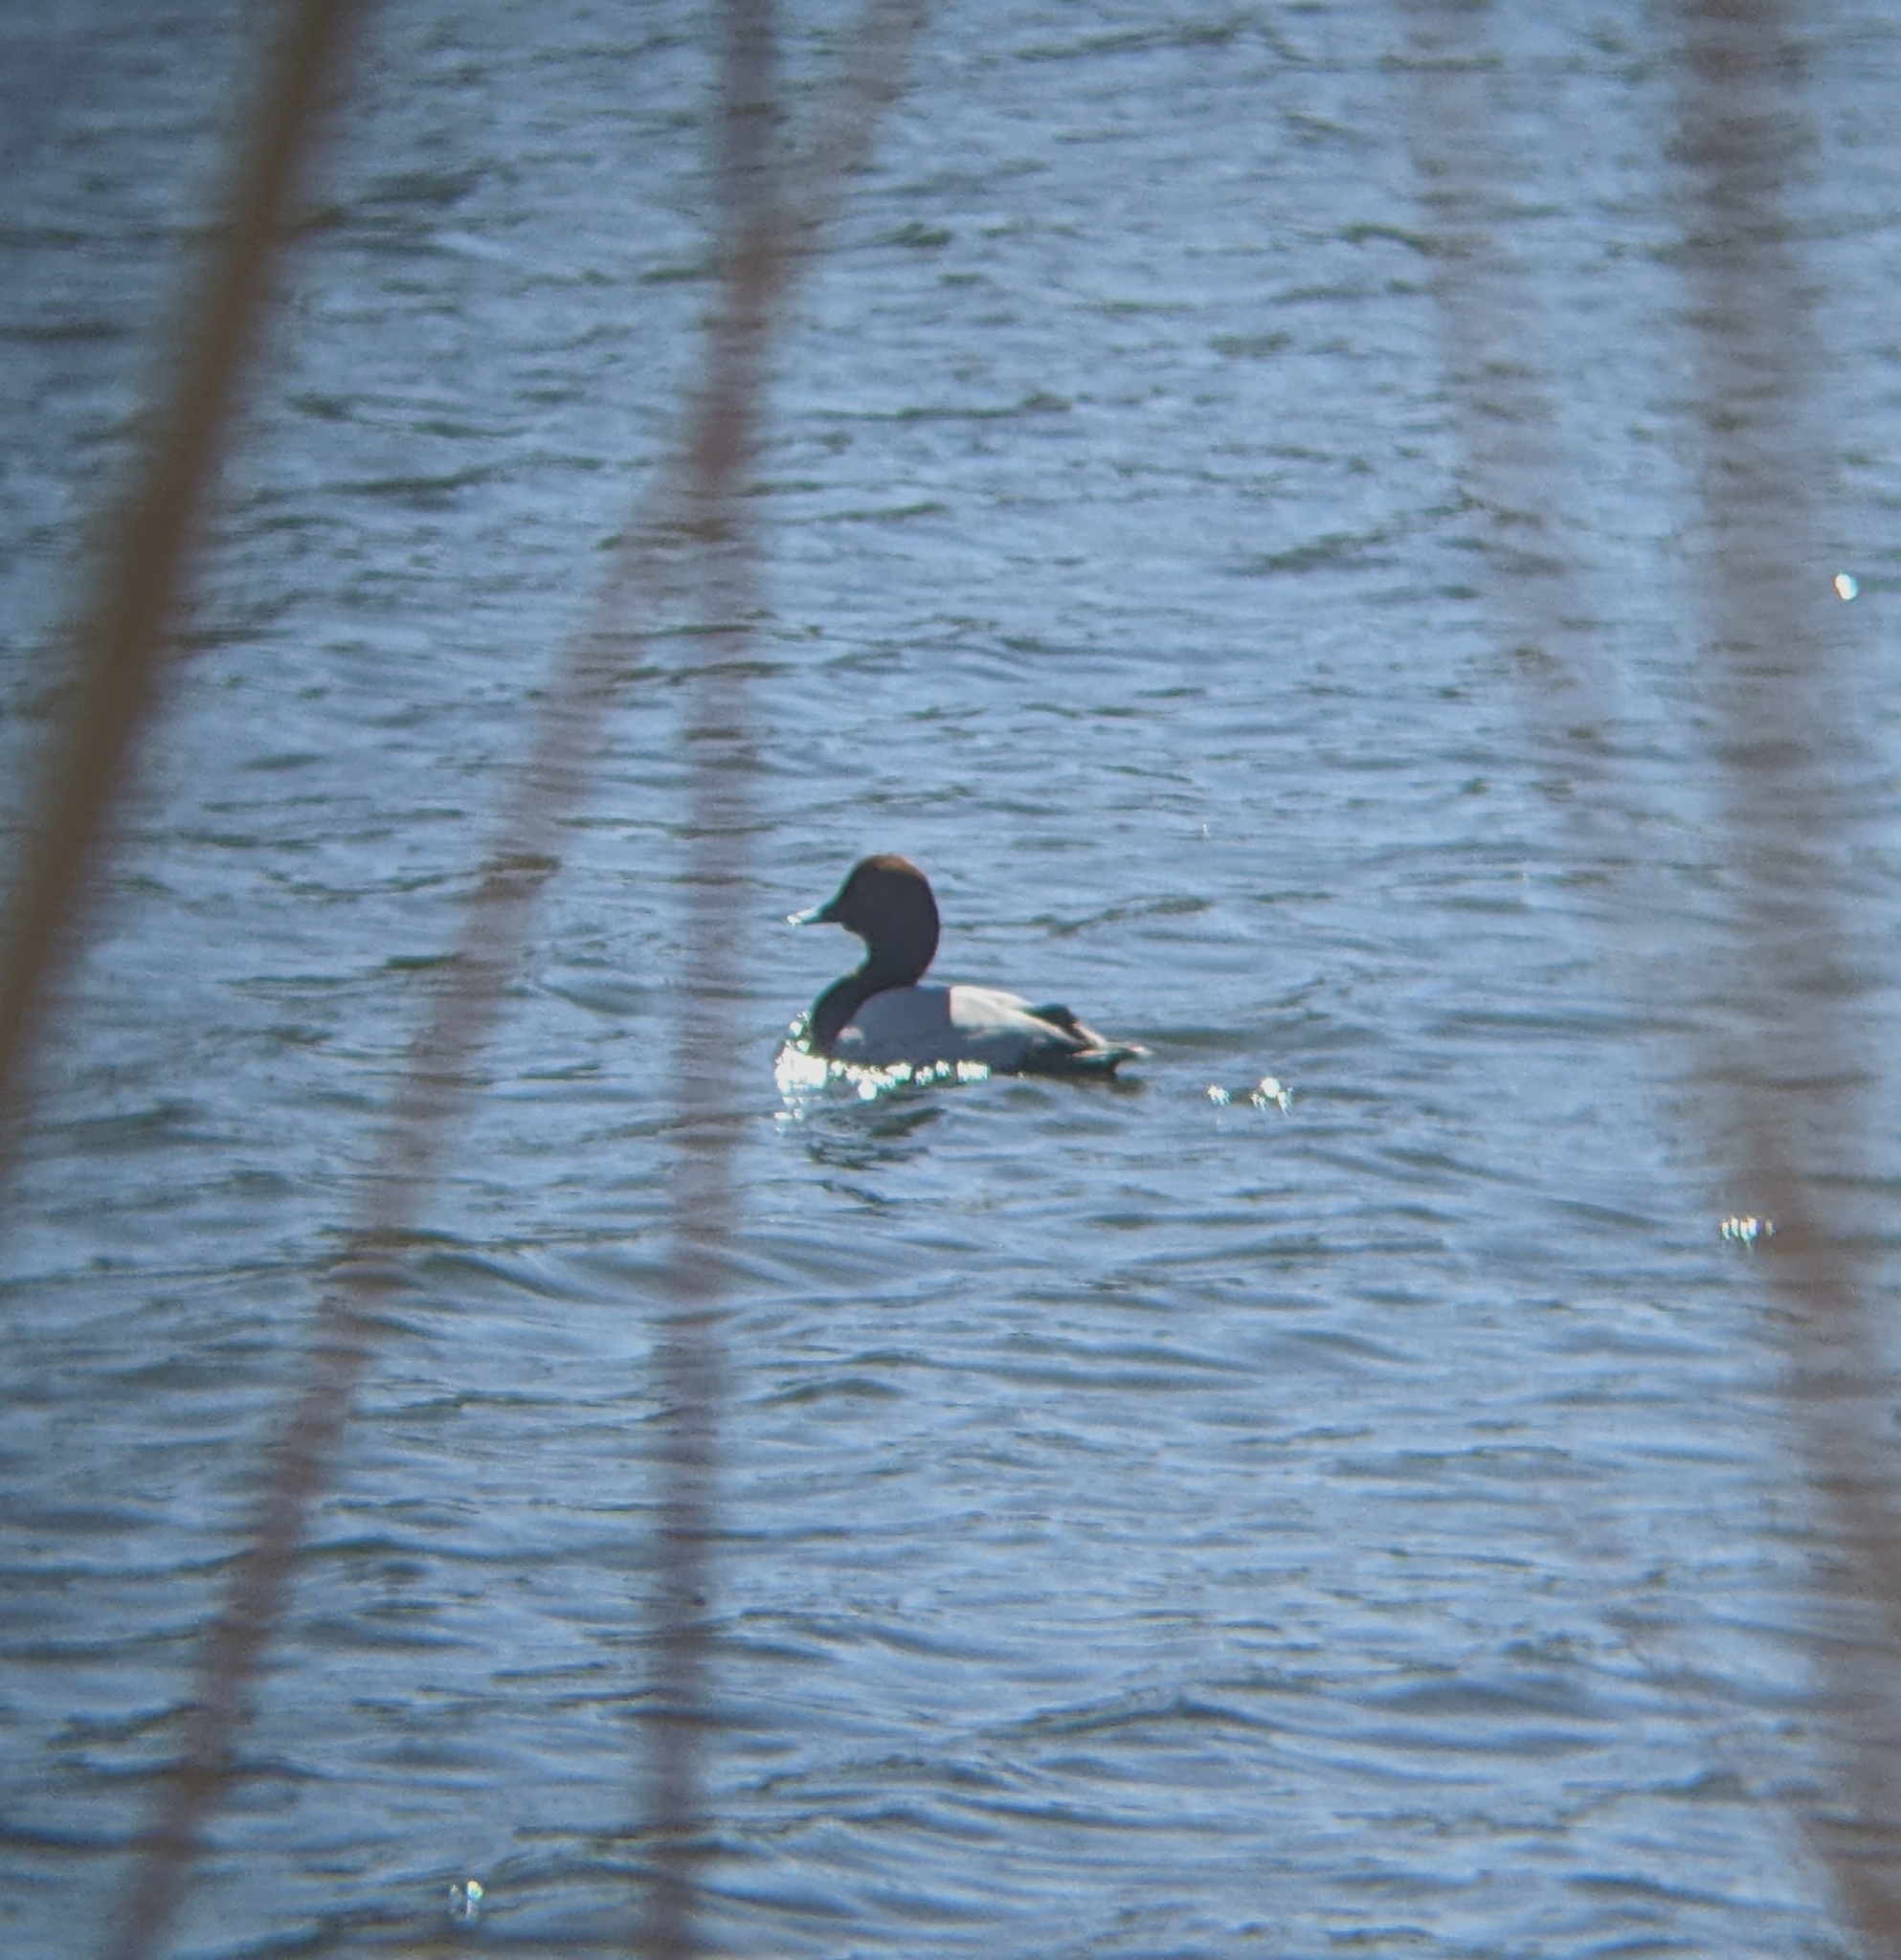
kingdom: Animalia
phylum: Chordata
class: Aves
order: Anseriformes
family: Anatidae
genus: Aythya
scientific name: Aythya ferina
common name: Common pochard
